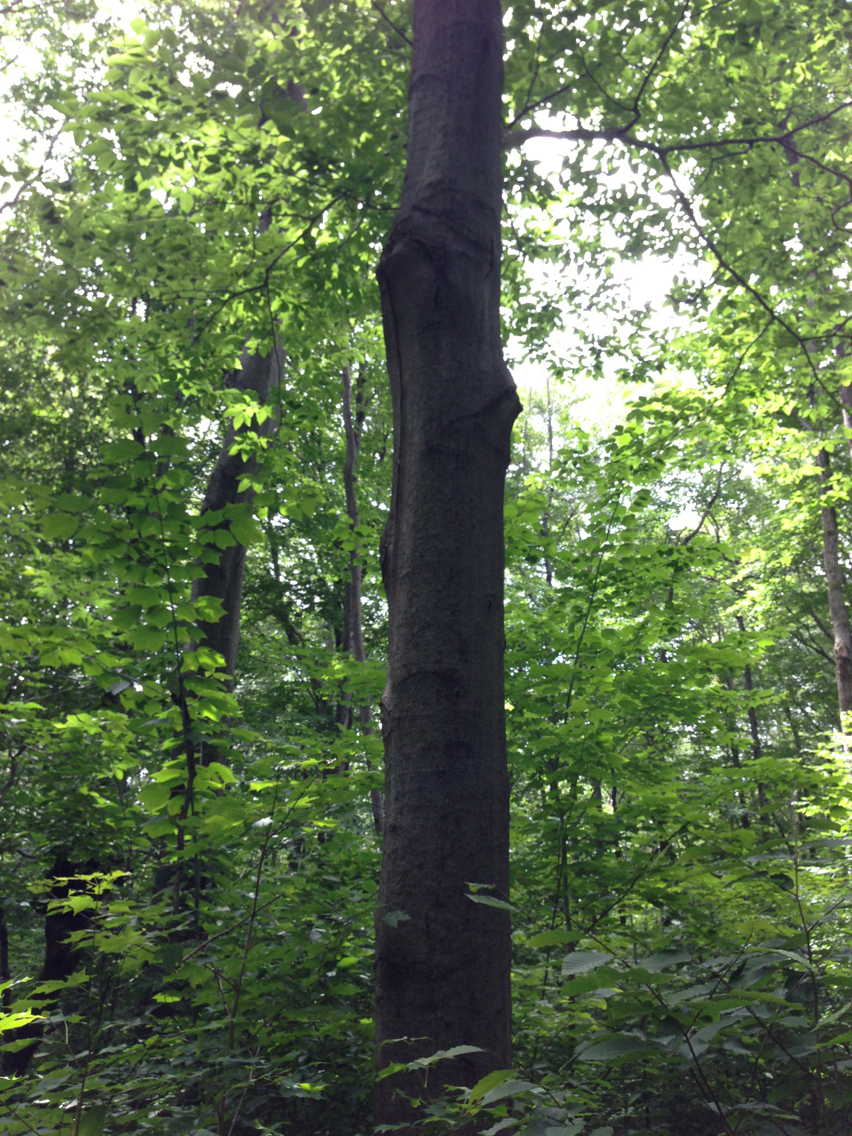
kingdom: Plantae
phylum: Tracheophyta
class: Magnoliopsida
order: Fagales
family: Fagaceae
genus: Fagus
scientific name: Fagus grandifolia
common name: American beech
